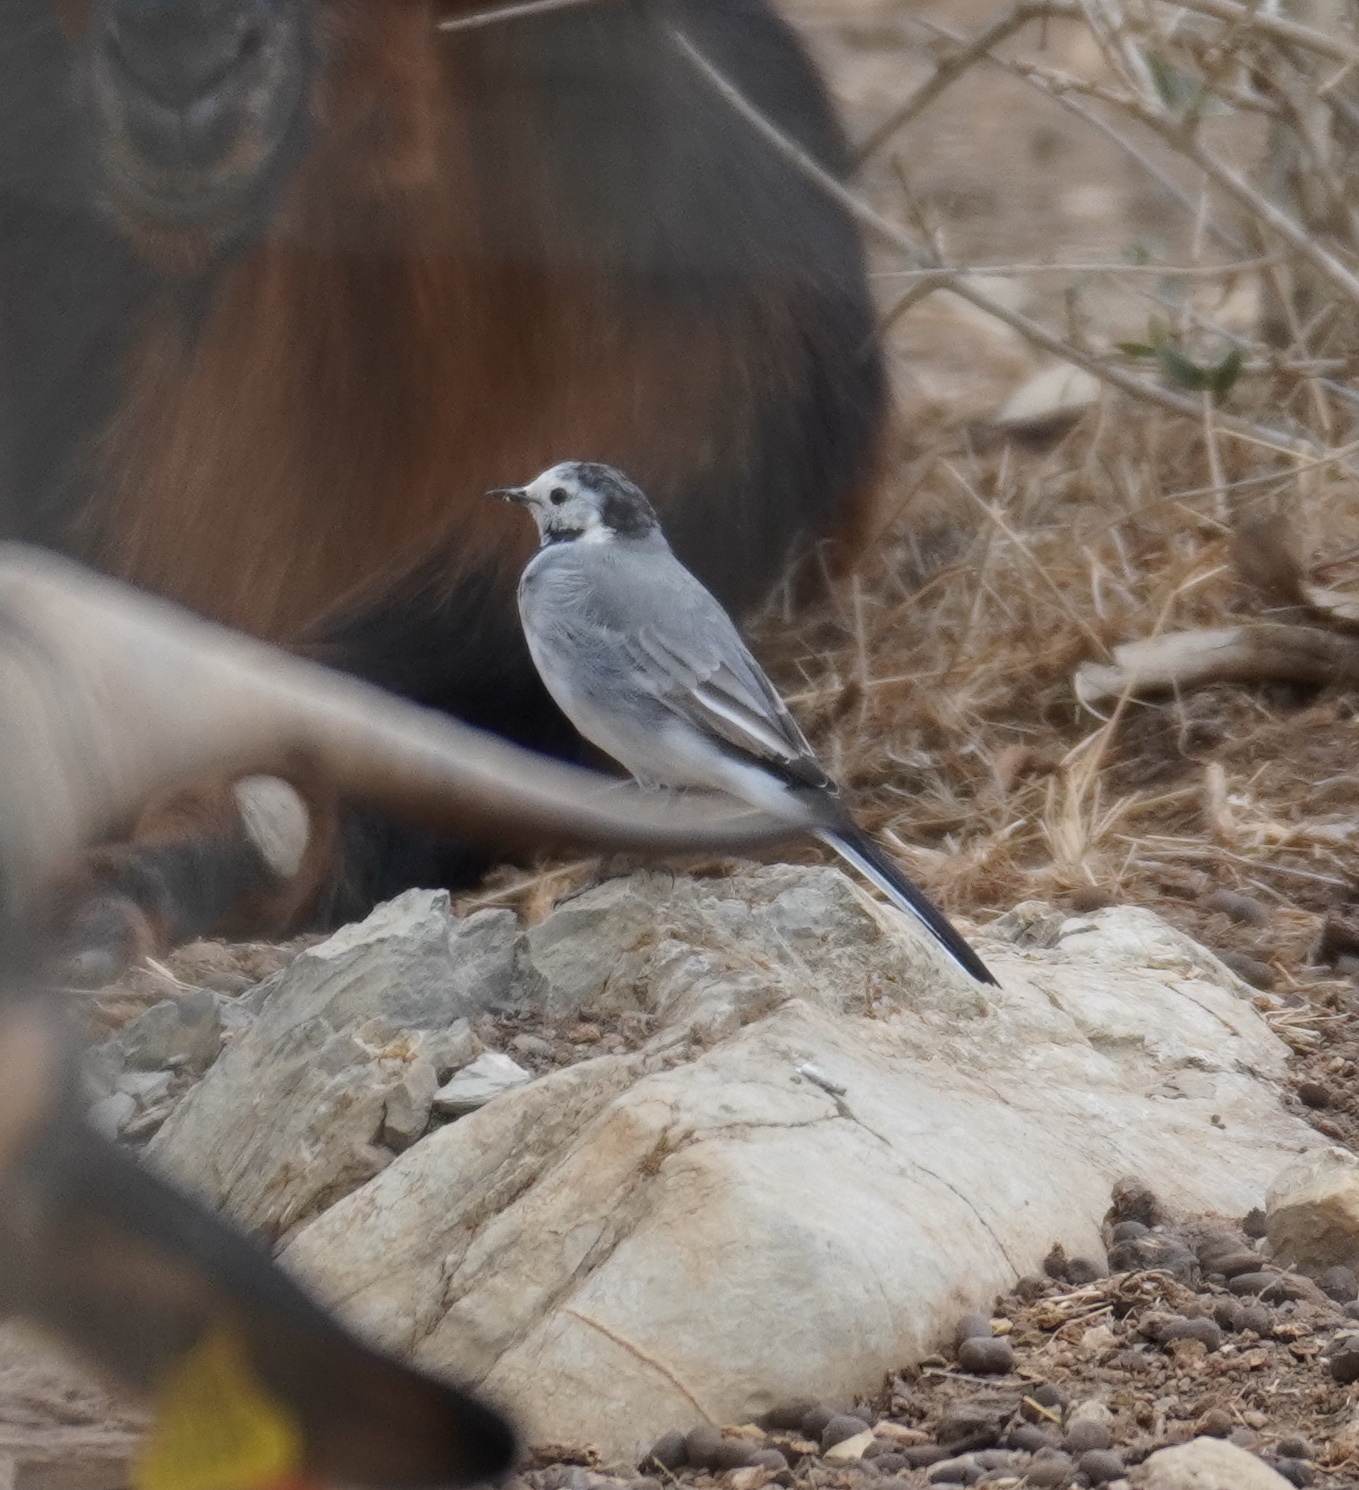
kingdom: Animalia
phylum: Chordata
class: Aves
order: Passeriformes
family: Motacillidae
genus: Motacilla
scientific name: Motacilla alba
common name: White wagtail
